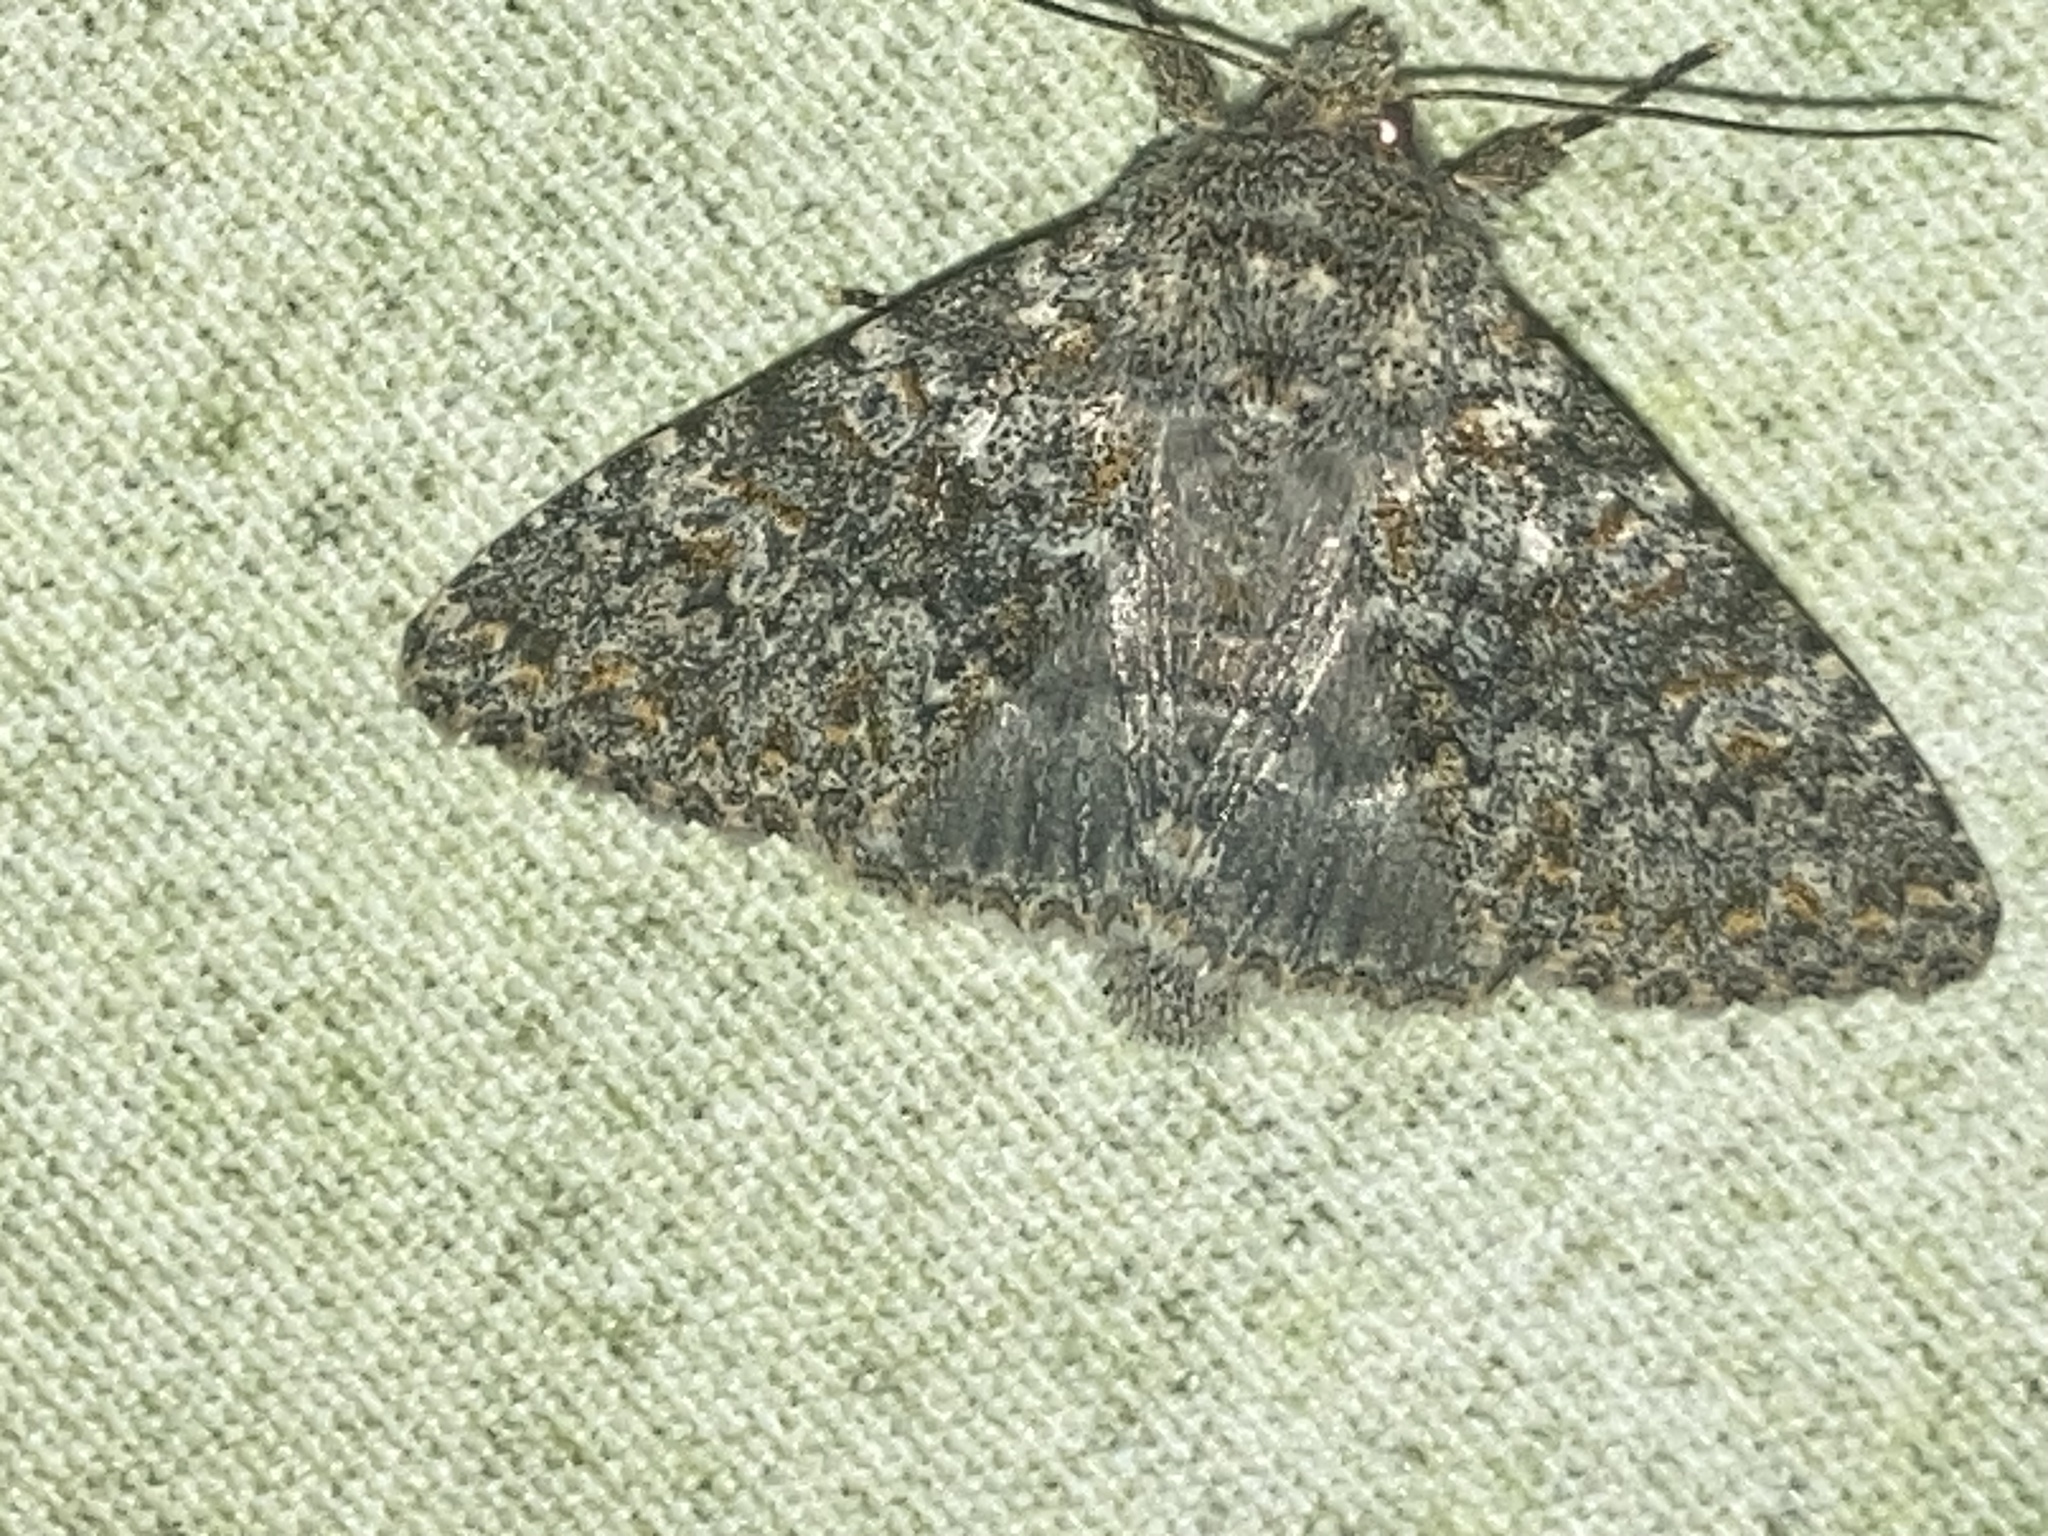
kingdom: Animalia
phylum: Arthropoda
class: Insecta
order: Lepidoptera
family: Noctuidae
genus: Polymixis
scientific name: Polymixis flavicincta
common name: Large ranunculus
